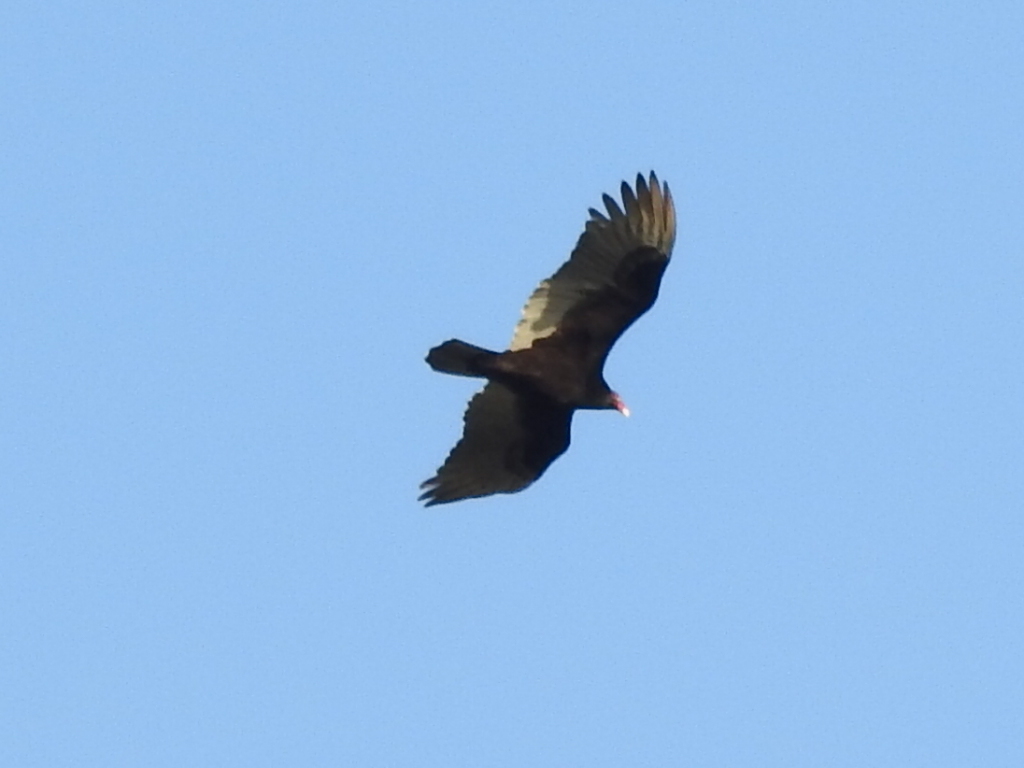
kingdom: Animalia
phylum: Chordata
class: Aves
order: Accipitriformes
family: Cathartidae
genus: Cathartes
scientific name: Cathartes aura
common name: Turkey vulture
